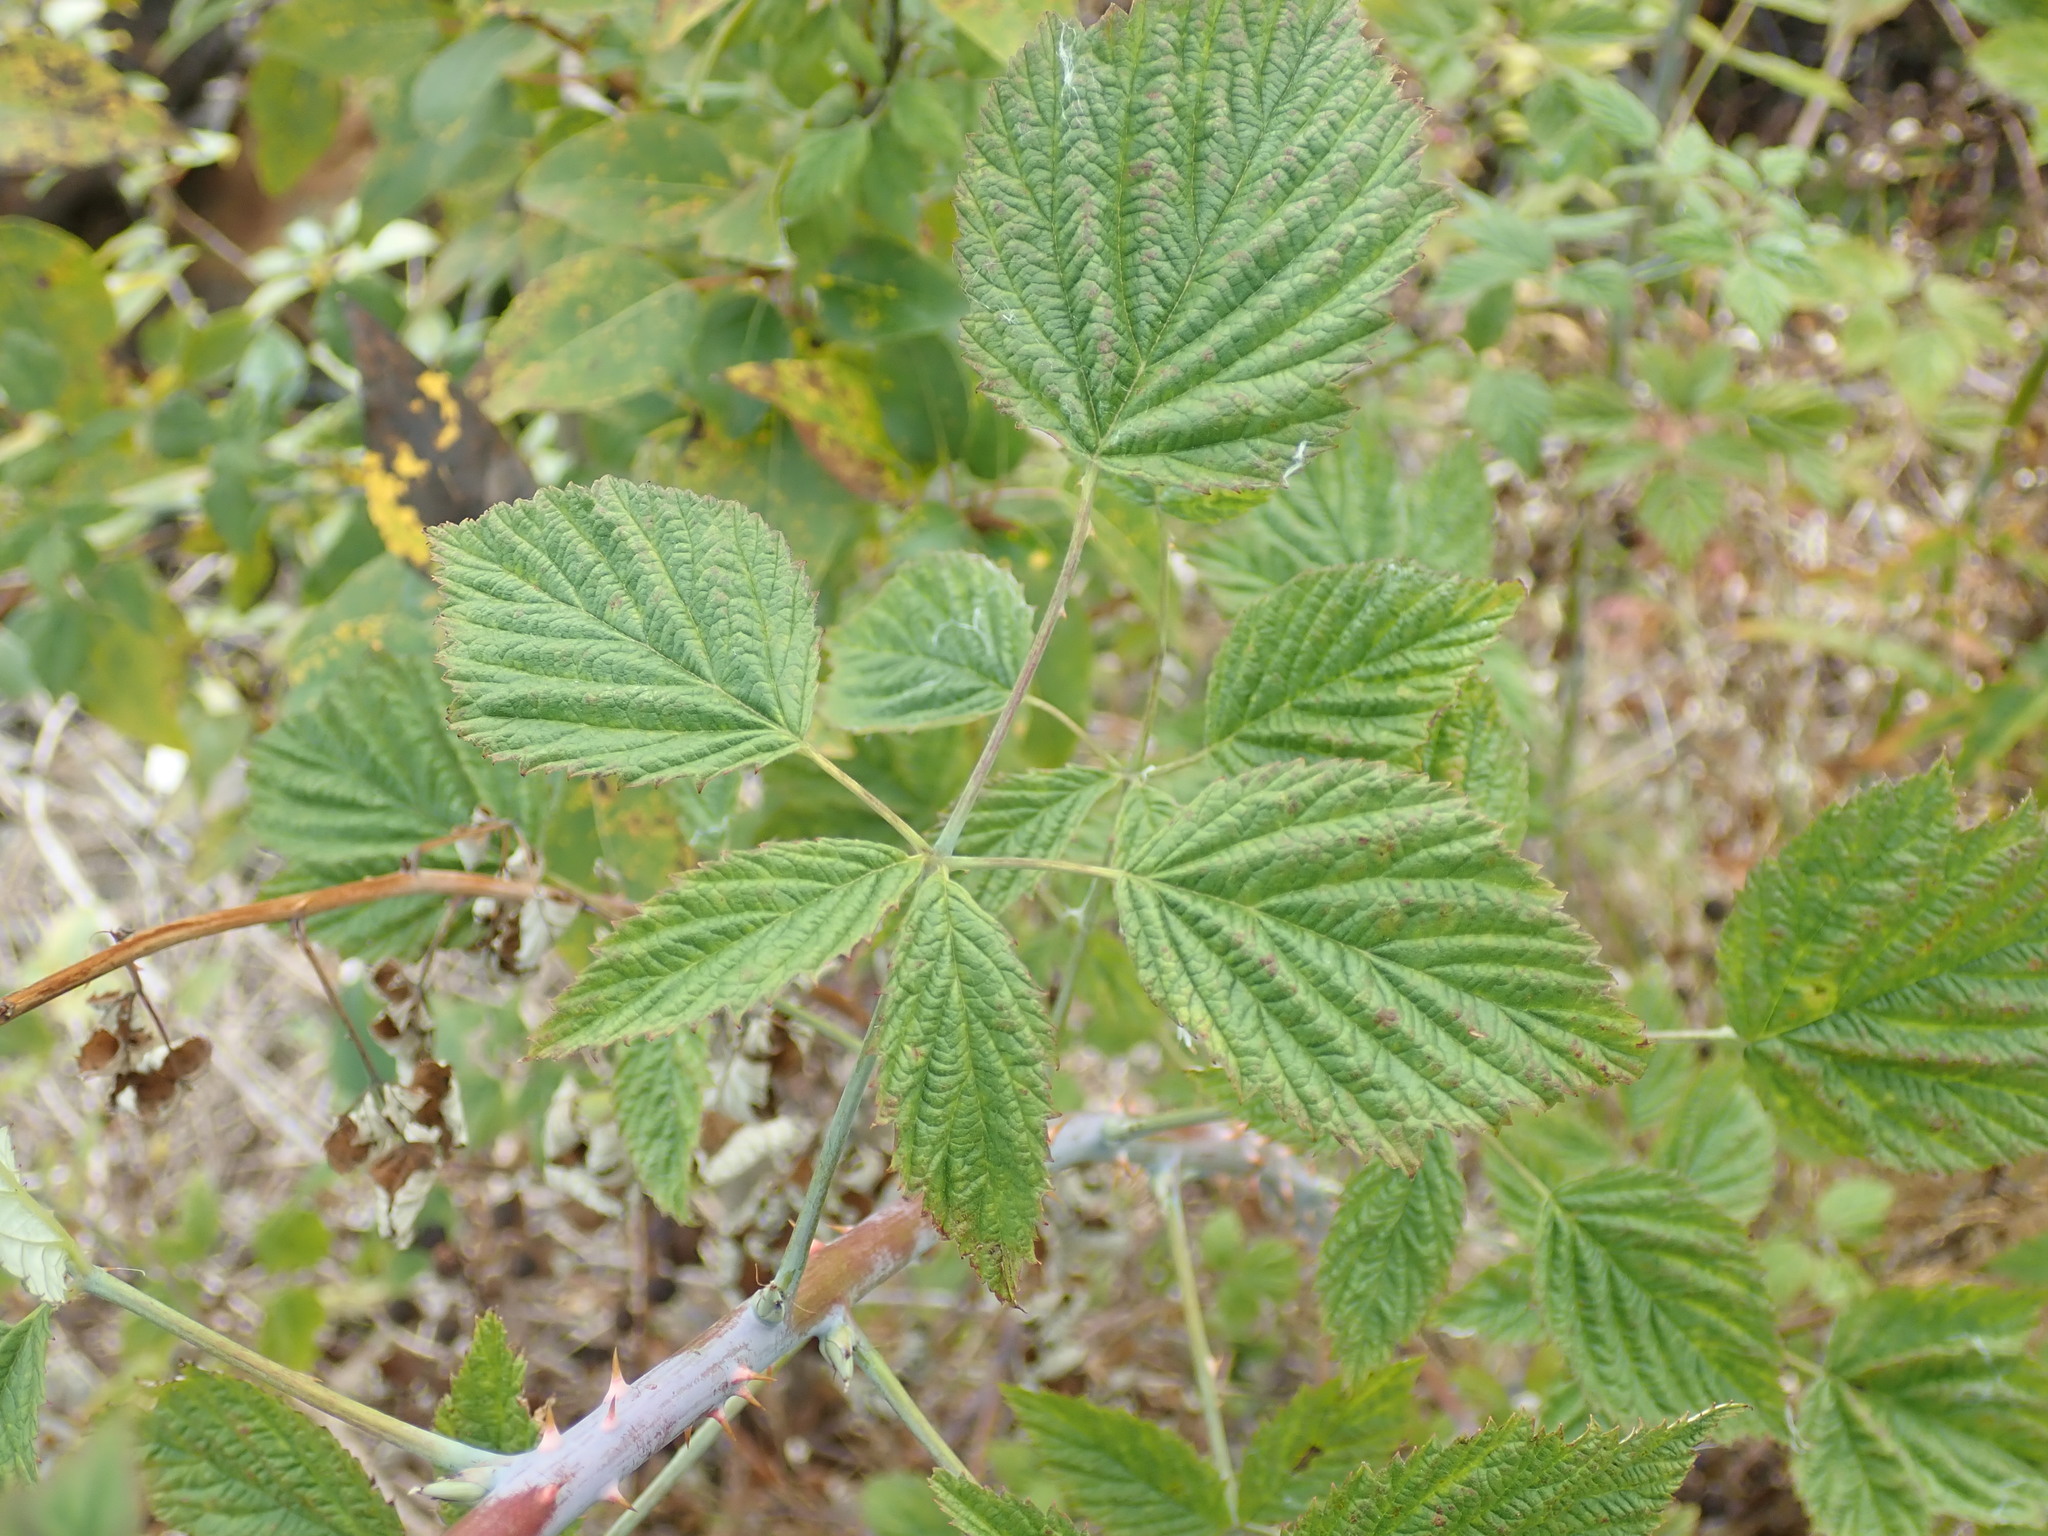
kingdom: Plantae
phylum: Tracheophyta
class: Magnoliopsida
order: Rosales
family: Rosaceae
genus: Rubus
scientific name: Rubus leucodermis
